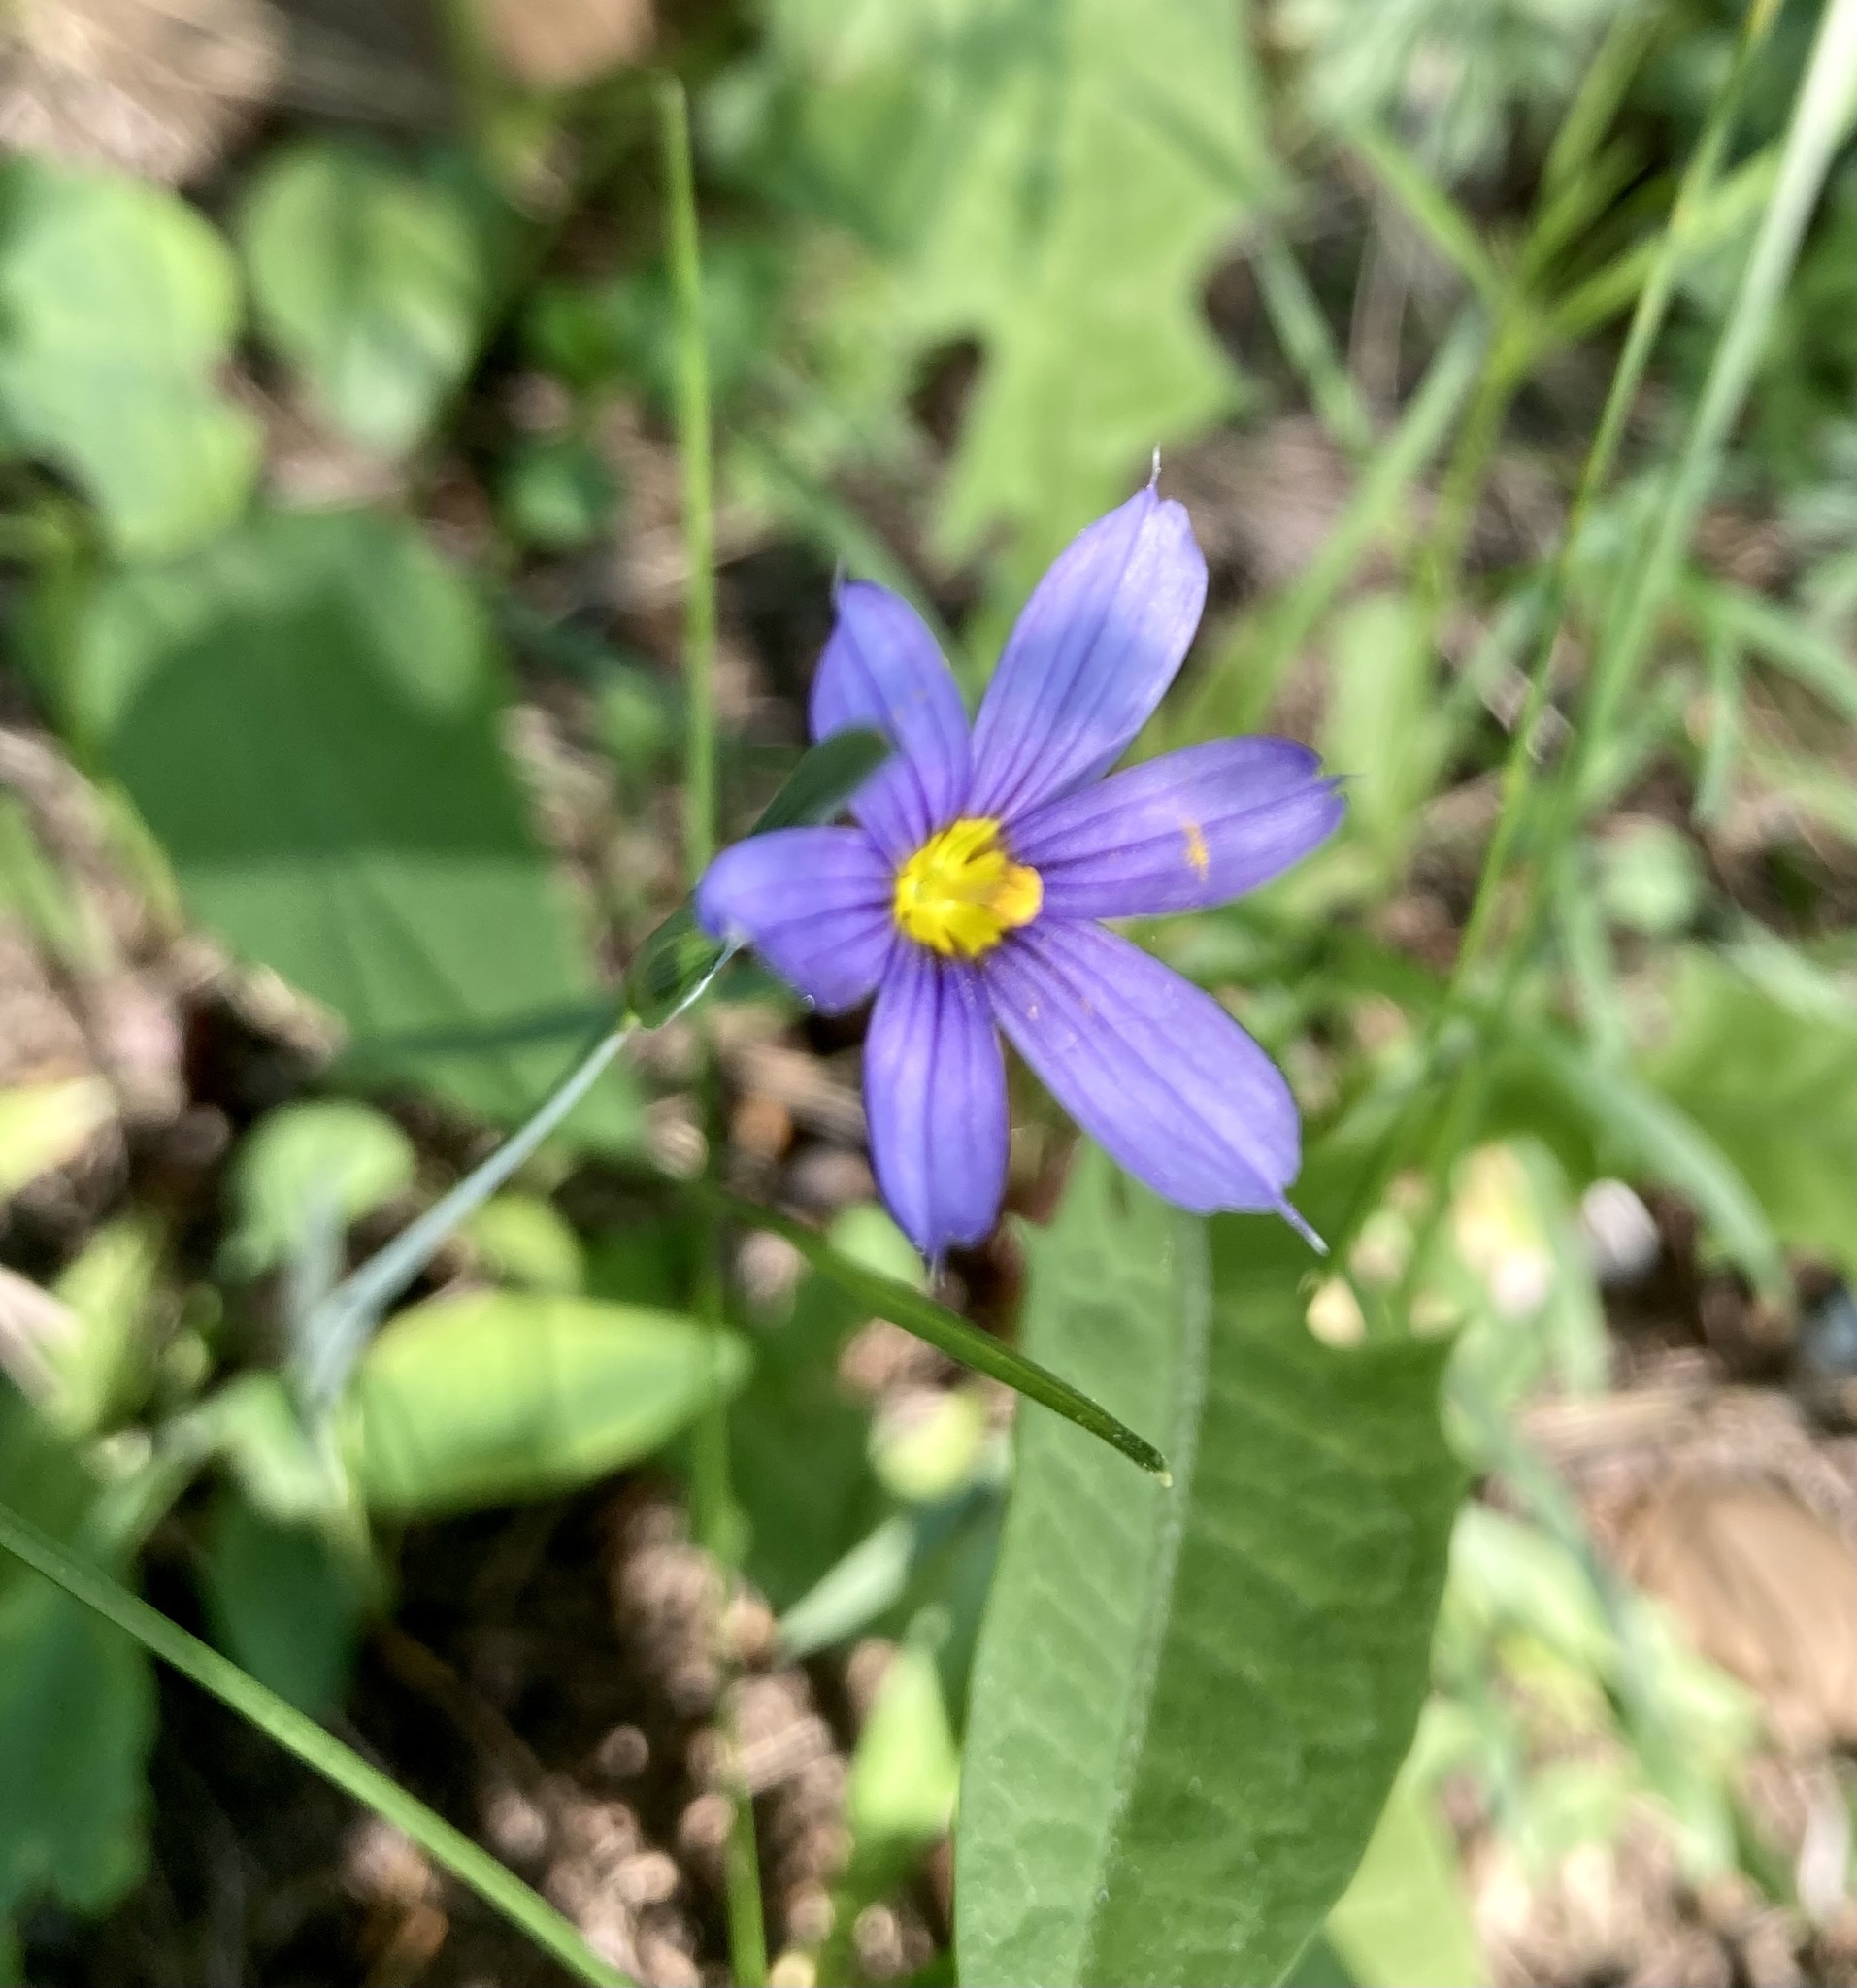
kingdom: Plantae
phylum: Tracheophyta
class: Liliopsida
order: Asparagales
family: Iridaceae
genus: Sisyrinchium
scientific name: Sisyrinchium montanum
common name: American blue-eyed-grass
